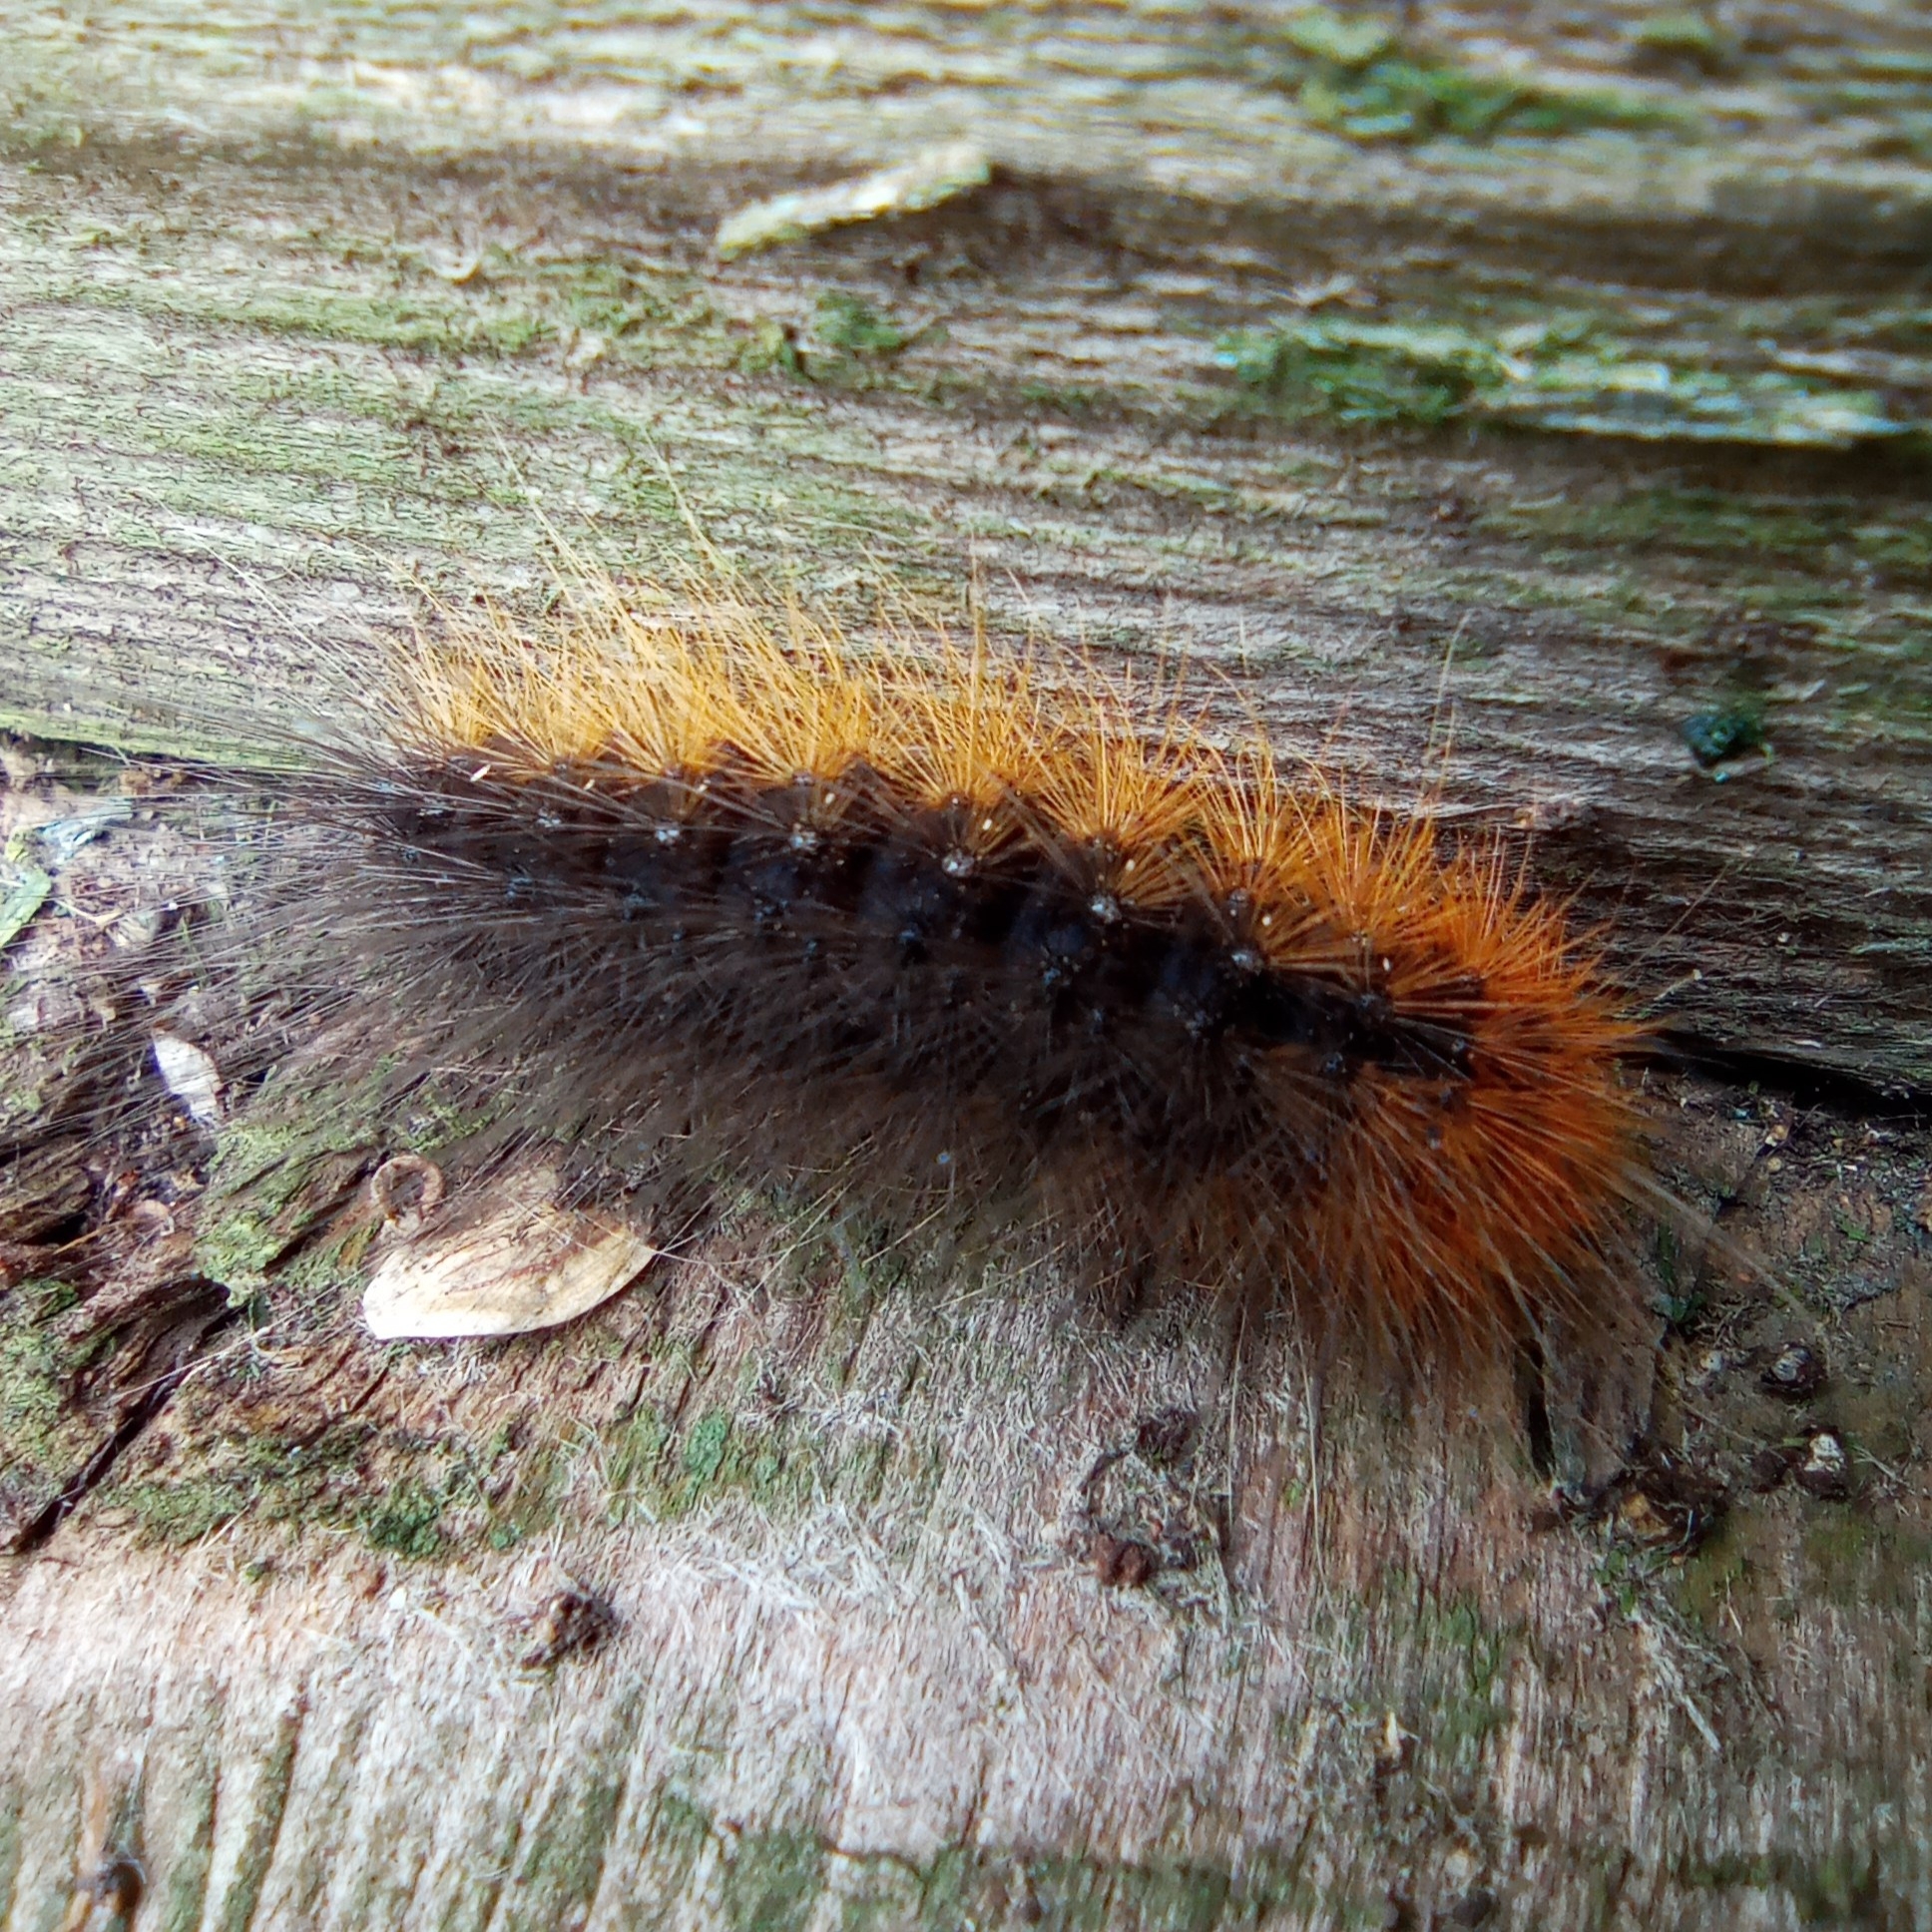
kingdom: Animalia
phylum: Arthropoda
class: Insecta
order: Lepidoptera
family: Erebidae
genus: Arctia
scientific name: Arctia caja
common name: Garden tiger
